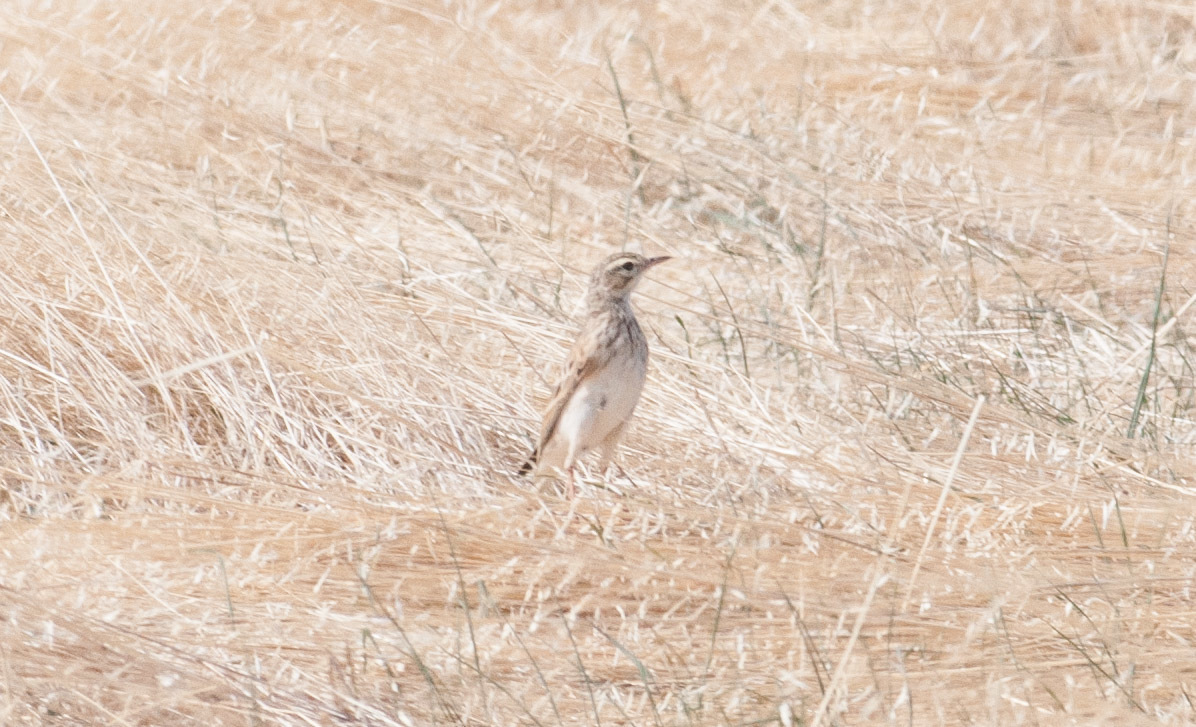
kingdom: Animalia
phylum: Chordata
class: Aves
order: Passeriformes
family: Motacillidae
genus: Anthus
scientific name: Anthus australis
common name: Australian pipit
